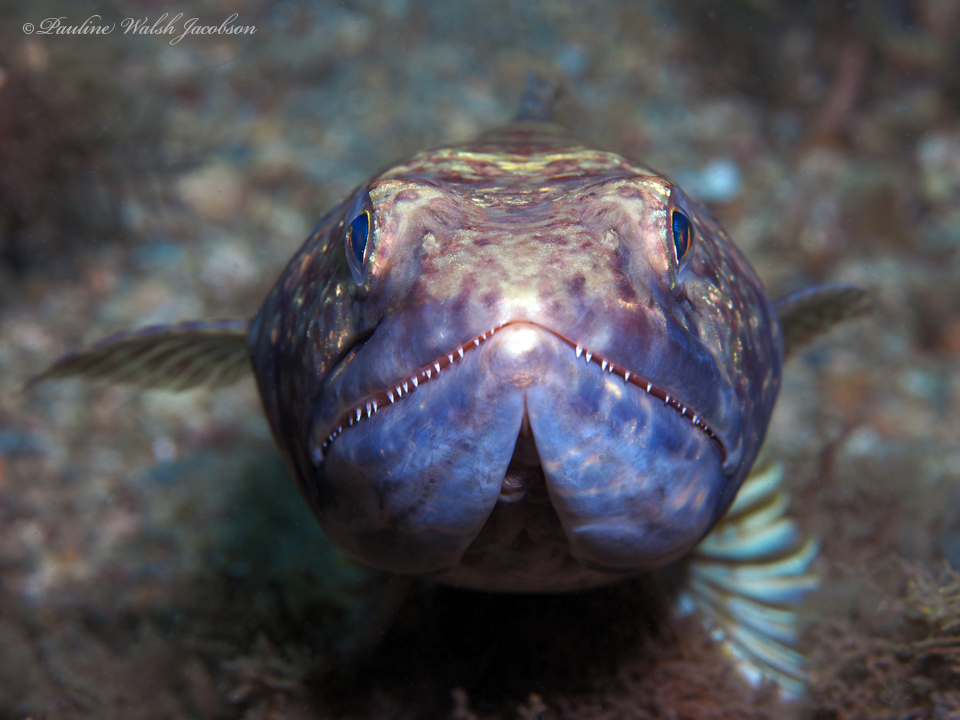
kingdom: Animalia
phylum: Chordata
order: Aulopiformes
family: Synodontidae
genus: Synodus
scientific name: Synodus intermedius
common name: Sand diver
